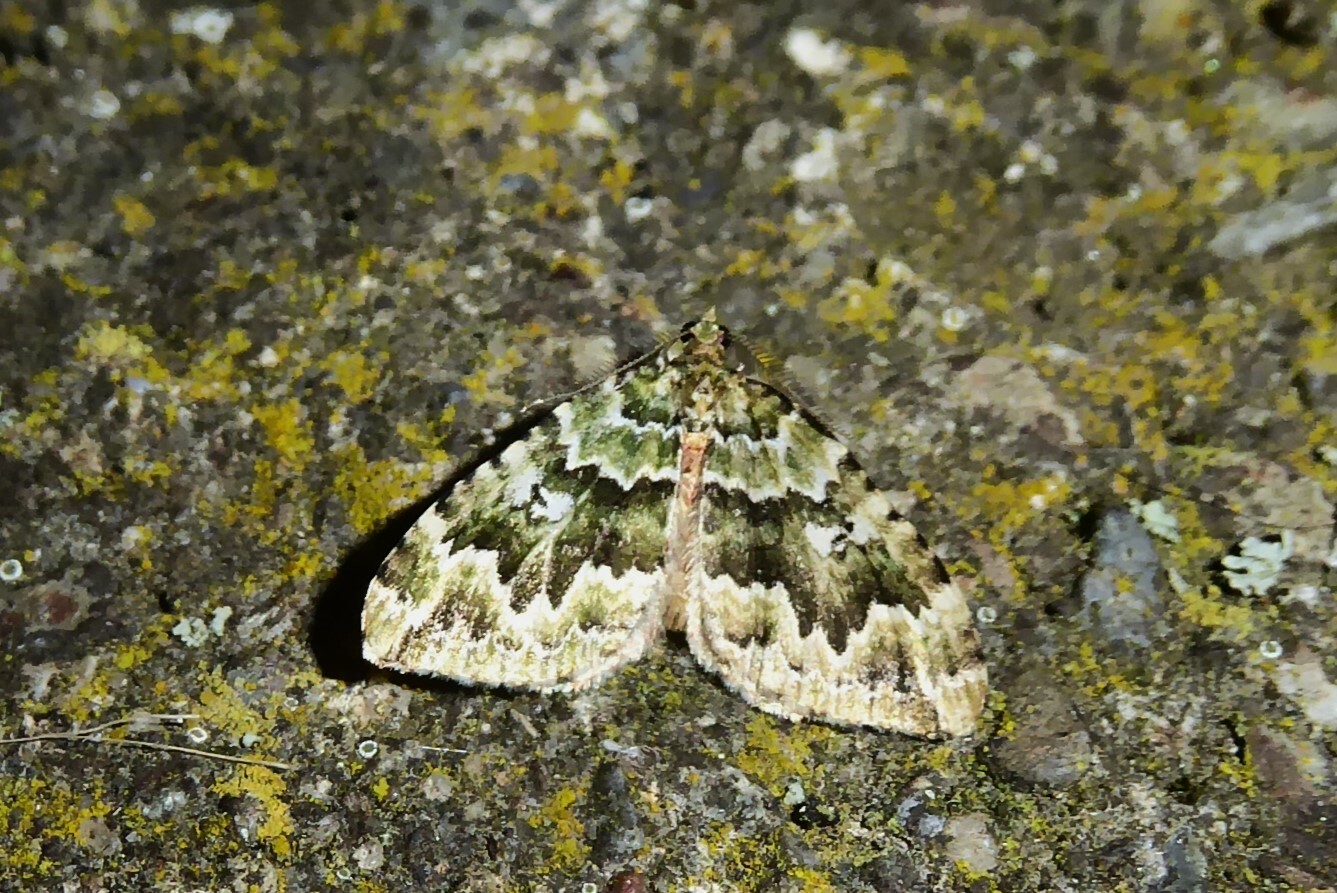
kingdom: Animalia
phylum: Arthropoda
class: Insecta
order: Lepidoptera
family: Geometridae
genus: Asaphodes
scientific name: Asaphodes beata
